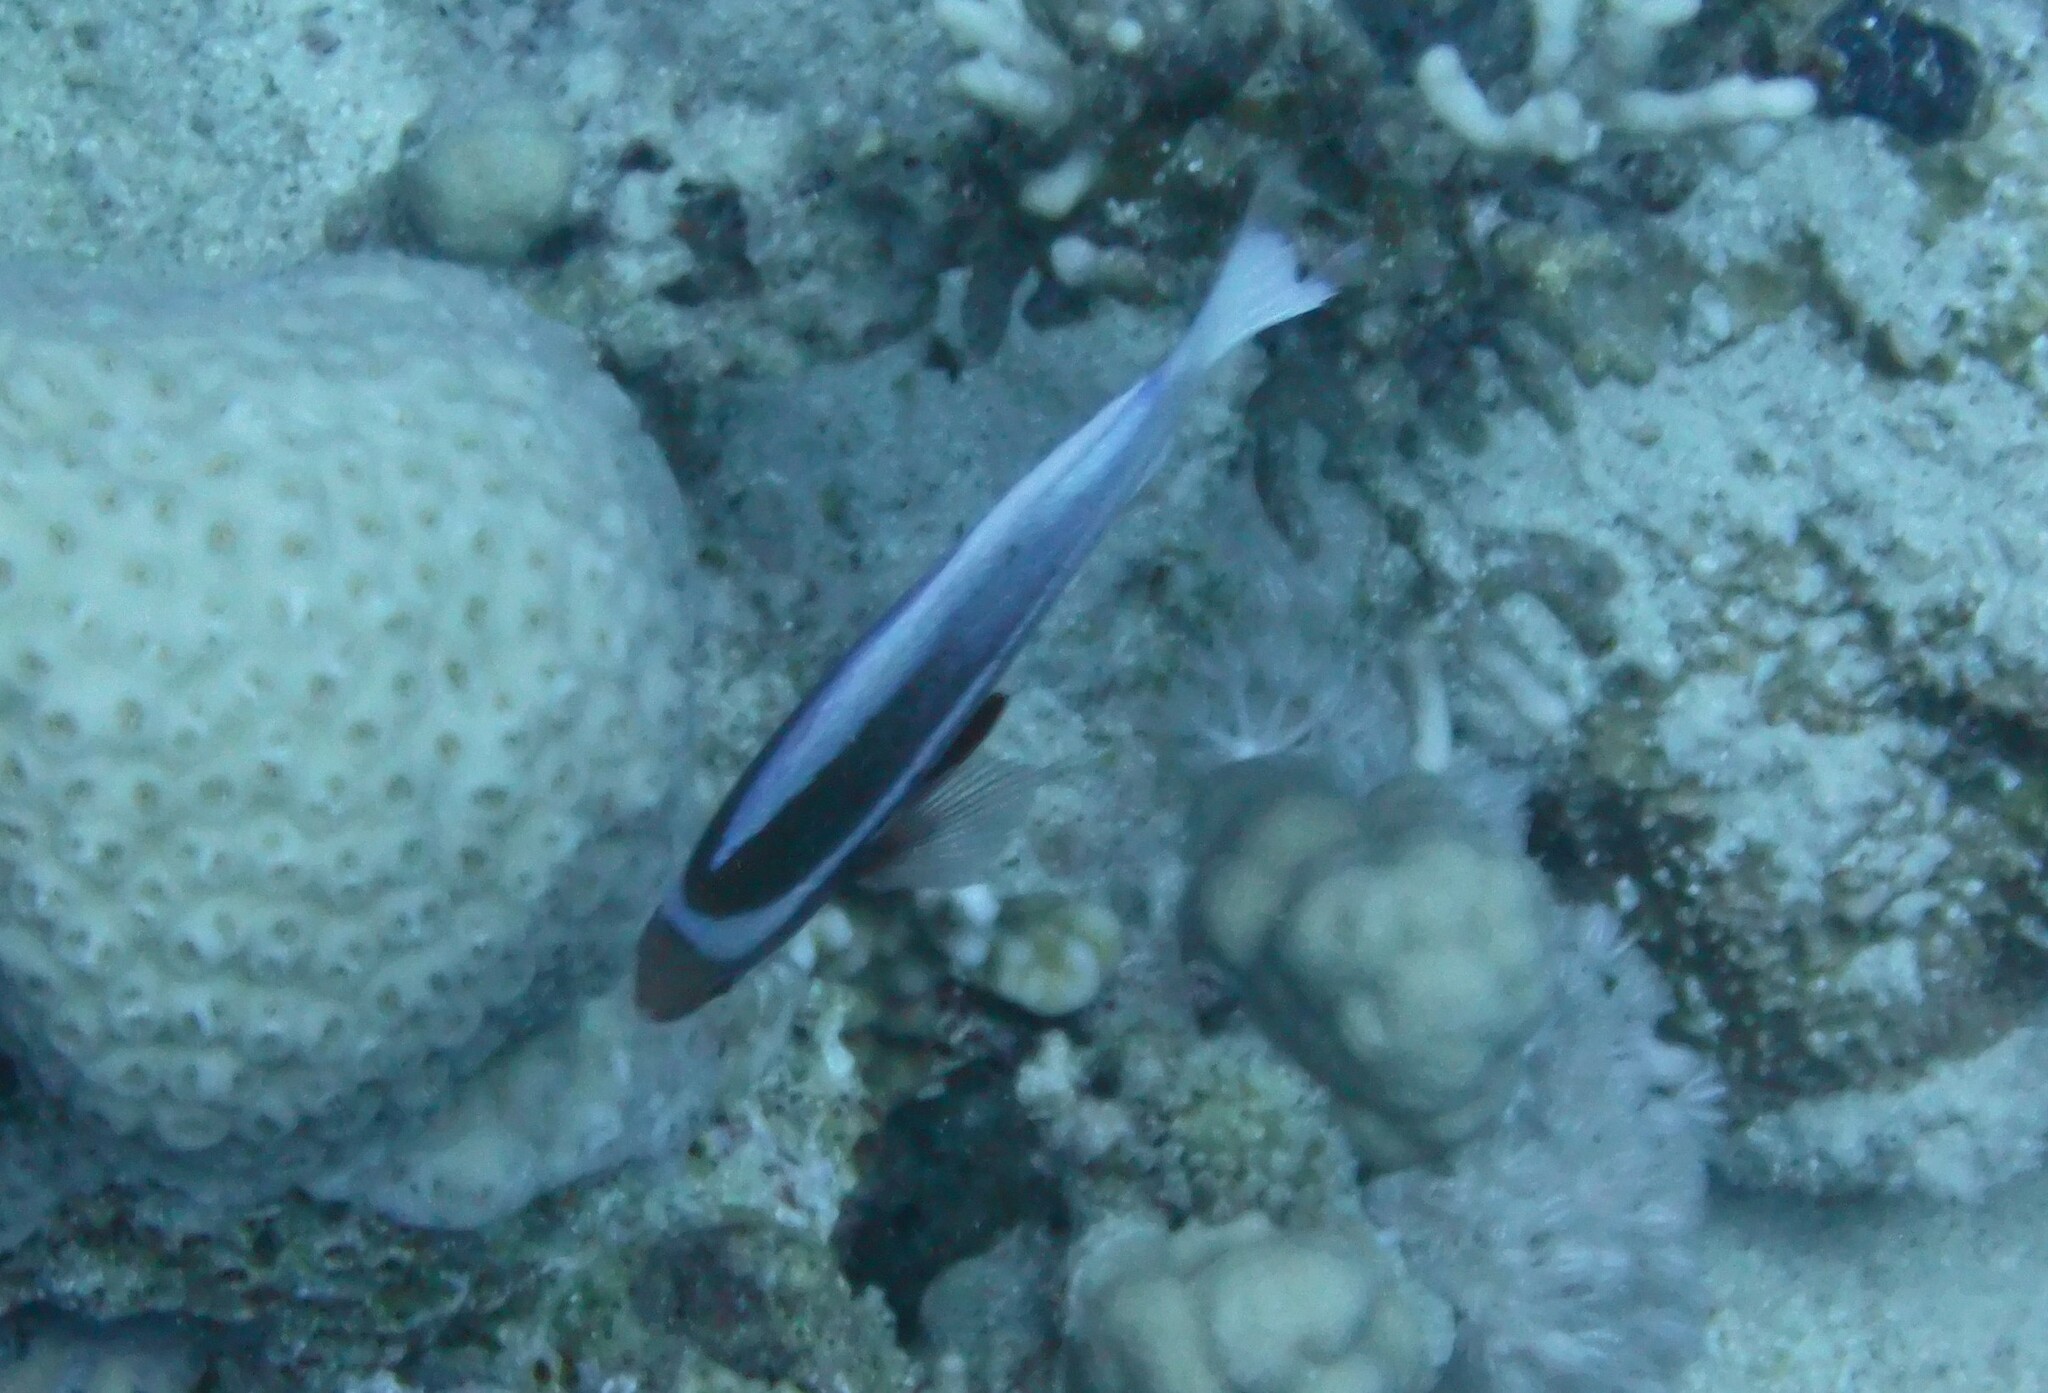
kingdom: Animalia
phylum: Chordata
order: Perciformes
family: Serranidae
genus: Pseudanthias
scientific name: Pseudanthias taeniatus
